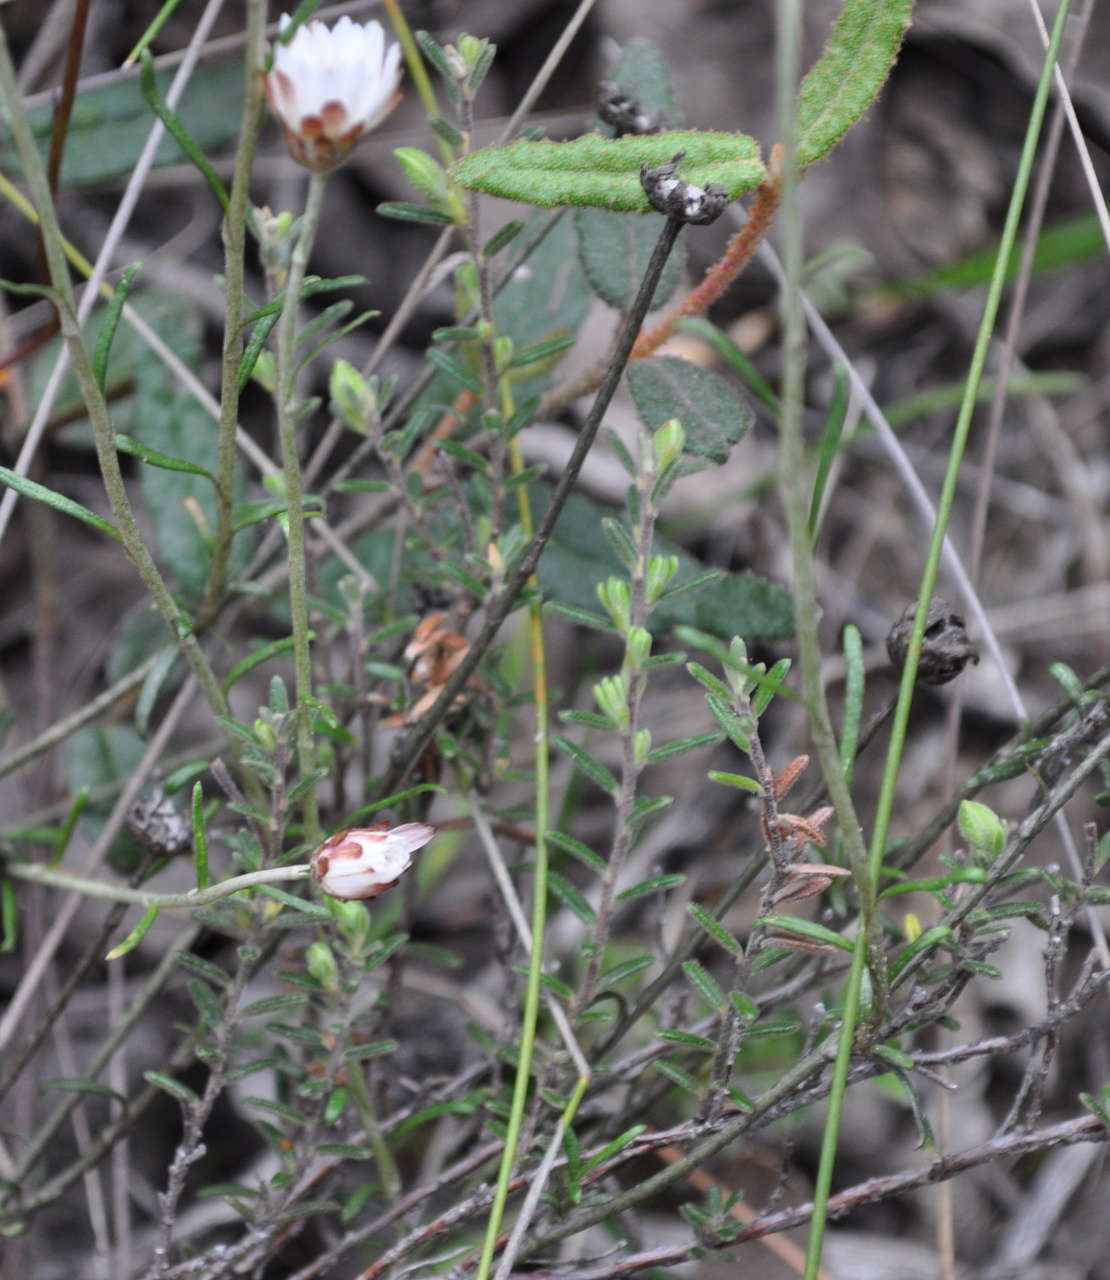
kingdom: Plantae
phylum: Tracheophyta
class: Magnoliopsida
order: Asterales
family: Asteraceae
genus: Argentipallium
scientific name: Argentipallium obtusifolium
